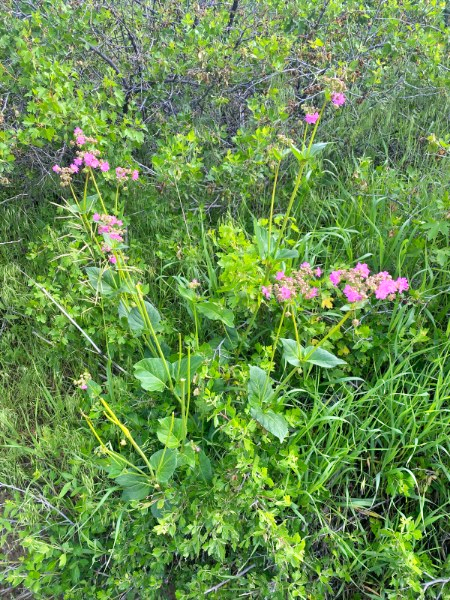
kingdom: Plantae
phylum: Tracheophyta
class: Magnoliopsida
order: Caryophyllales
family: Nyctaginaceae
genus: Mirabilis
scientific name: Mirabilis nyctaginea
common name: Umbrella wort
